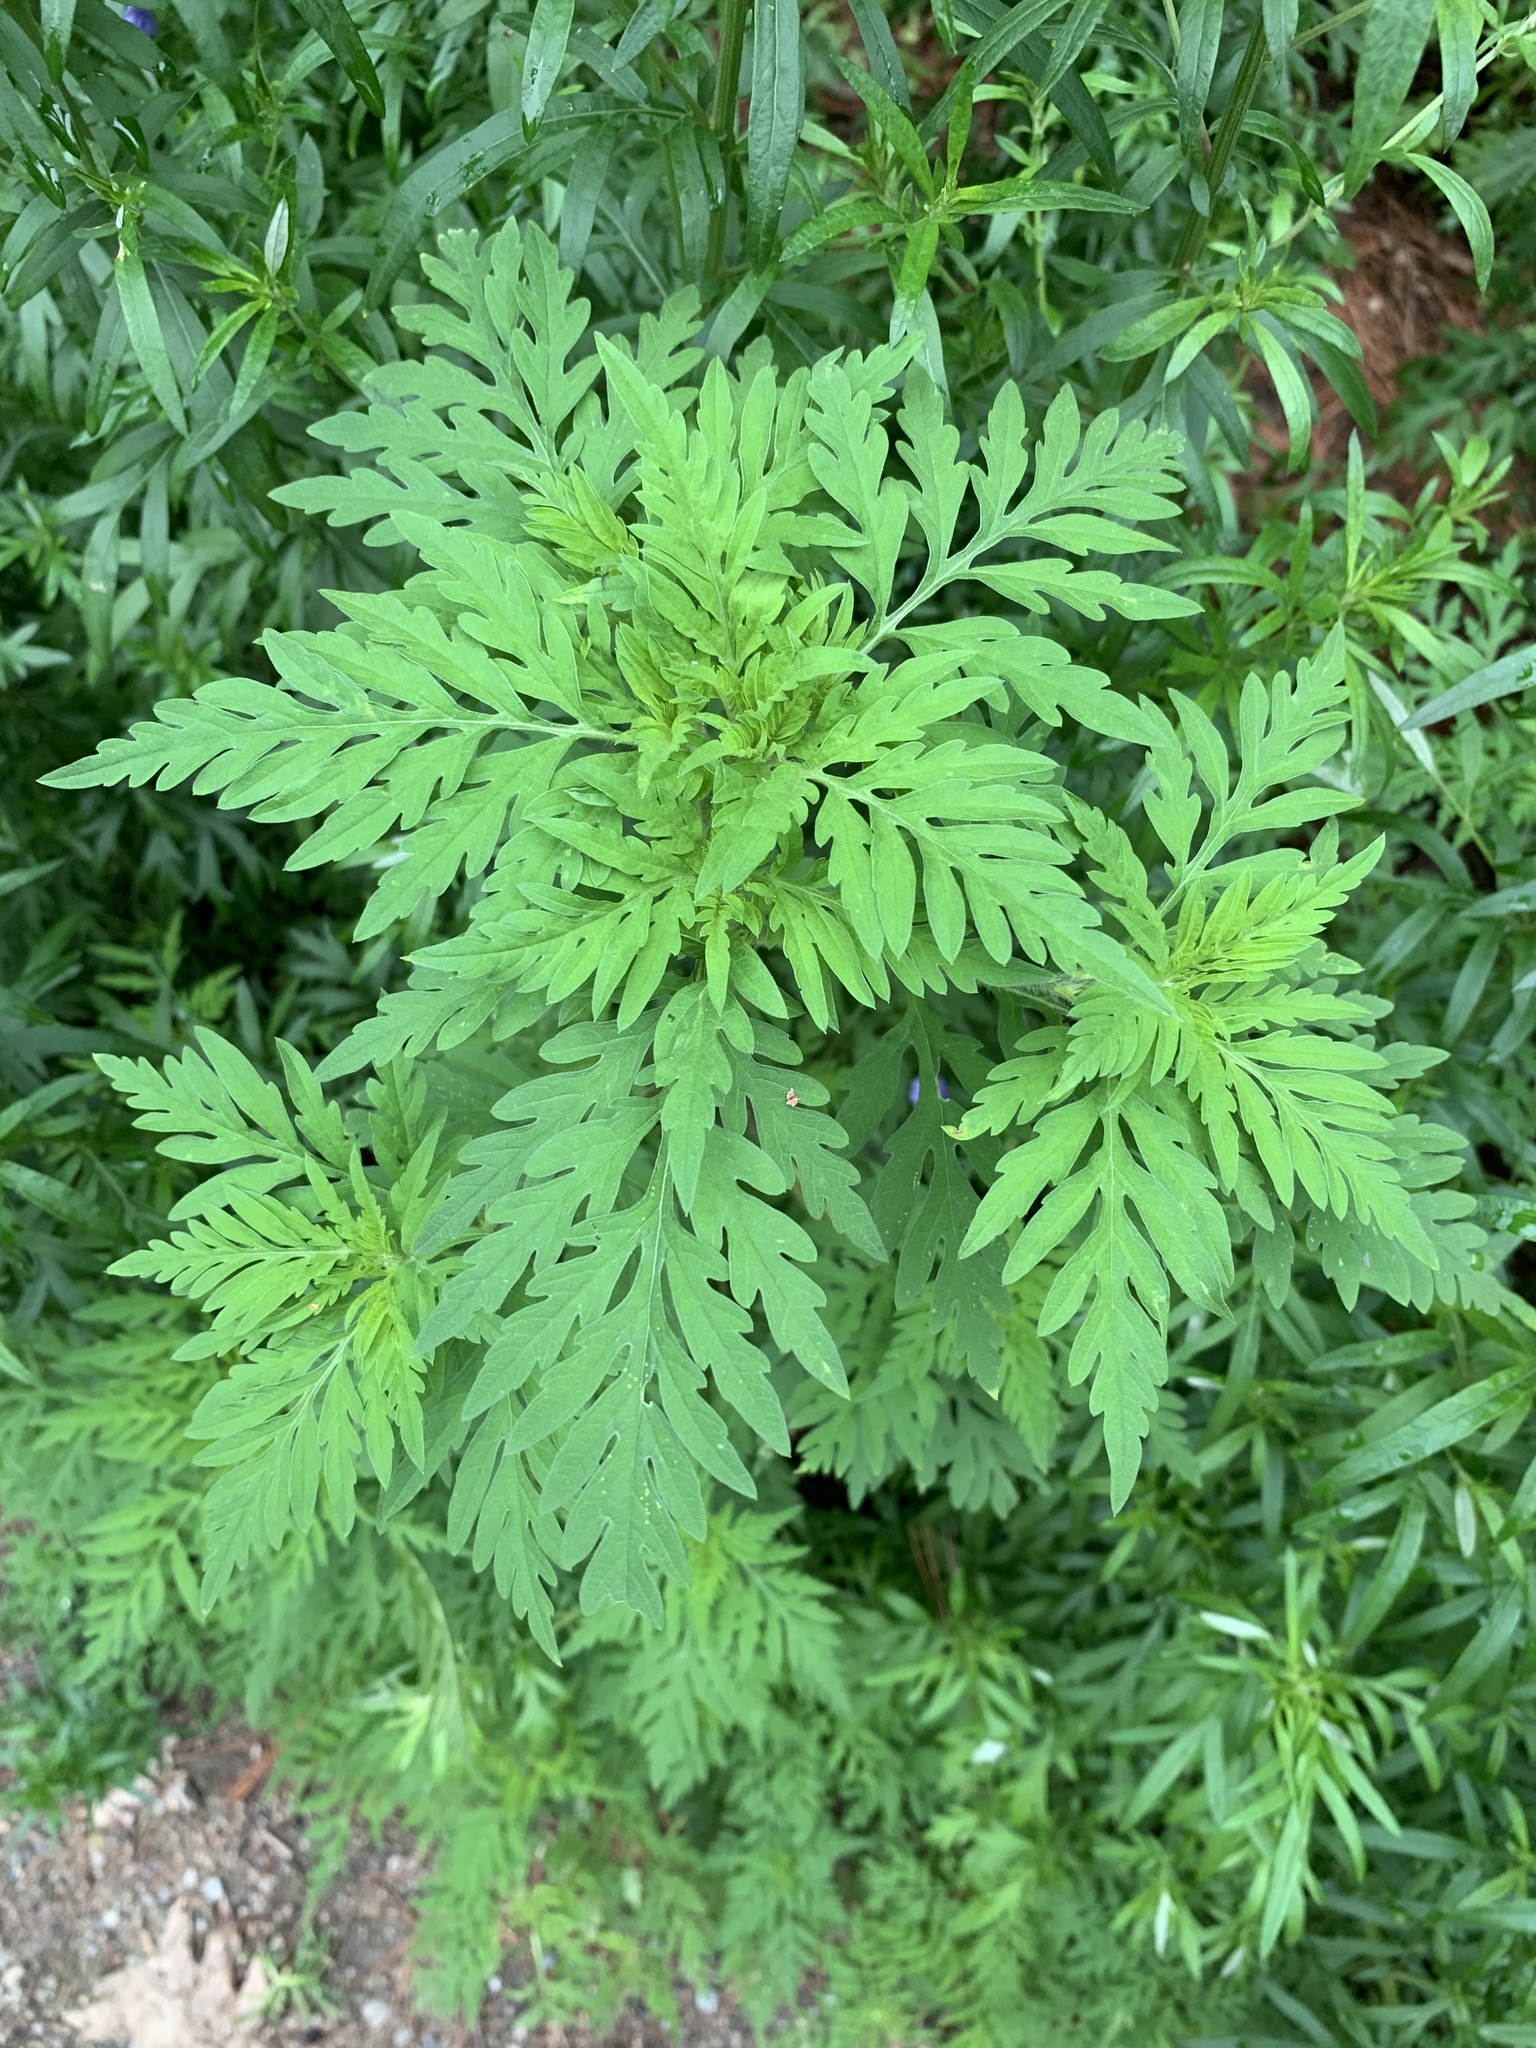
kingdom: Plantae
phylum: Tracheophyta
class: Magnoliopsida
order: Asterales
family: Asteraceae
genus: Ambrosia
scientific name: Ambrosia artemisiifolia
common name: Annual ragweed
